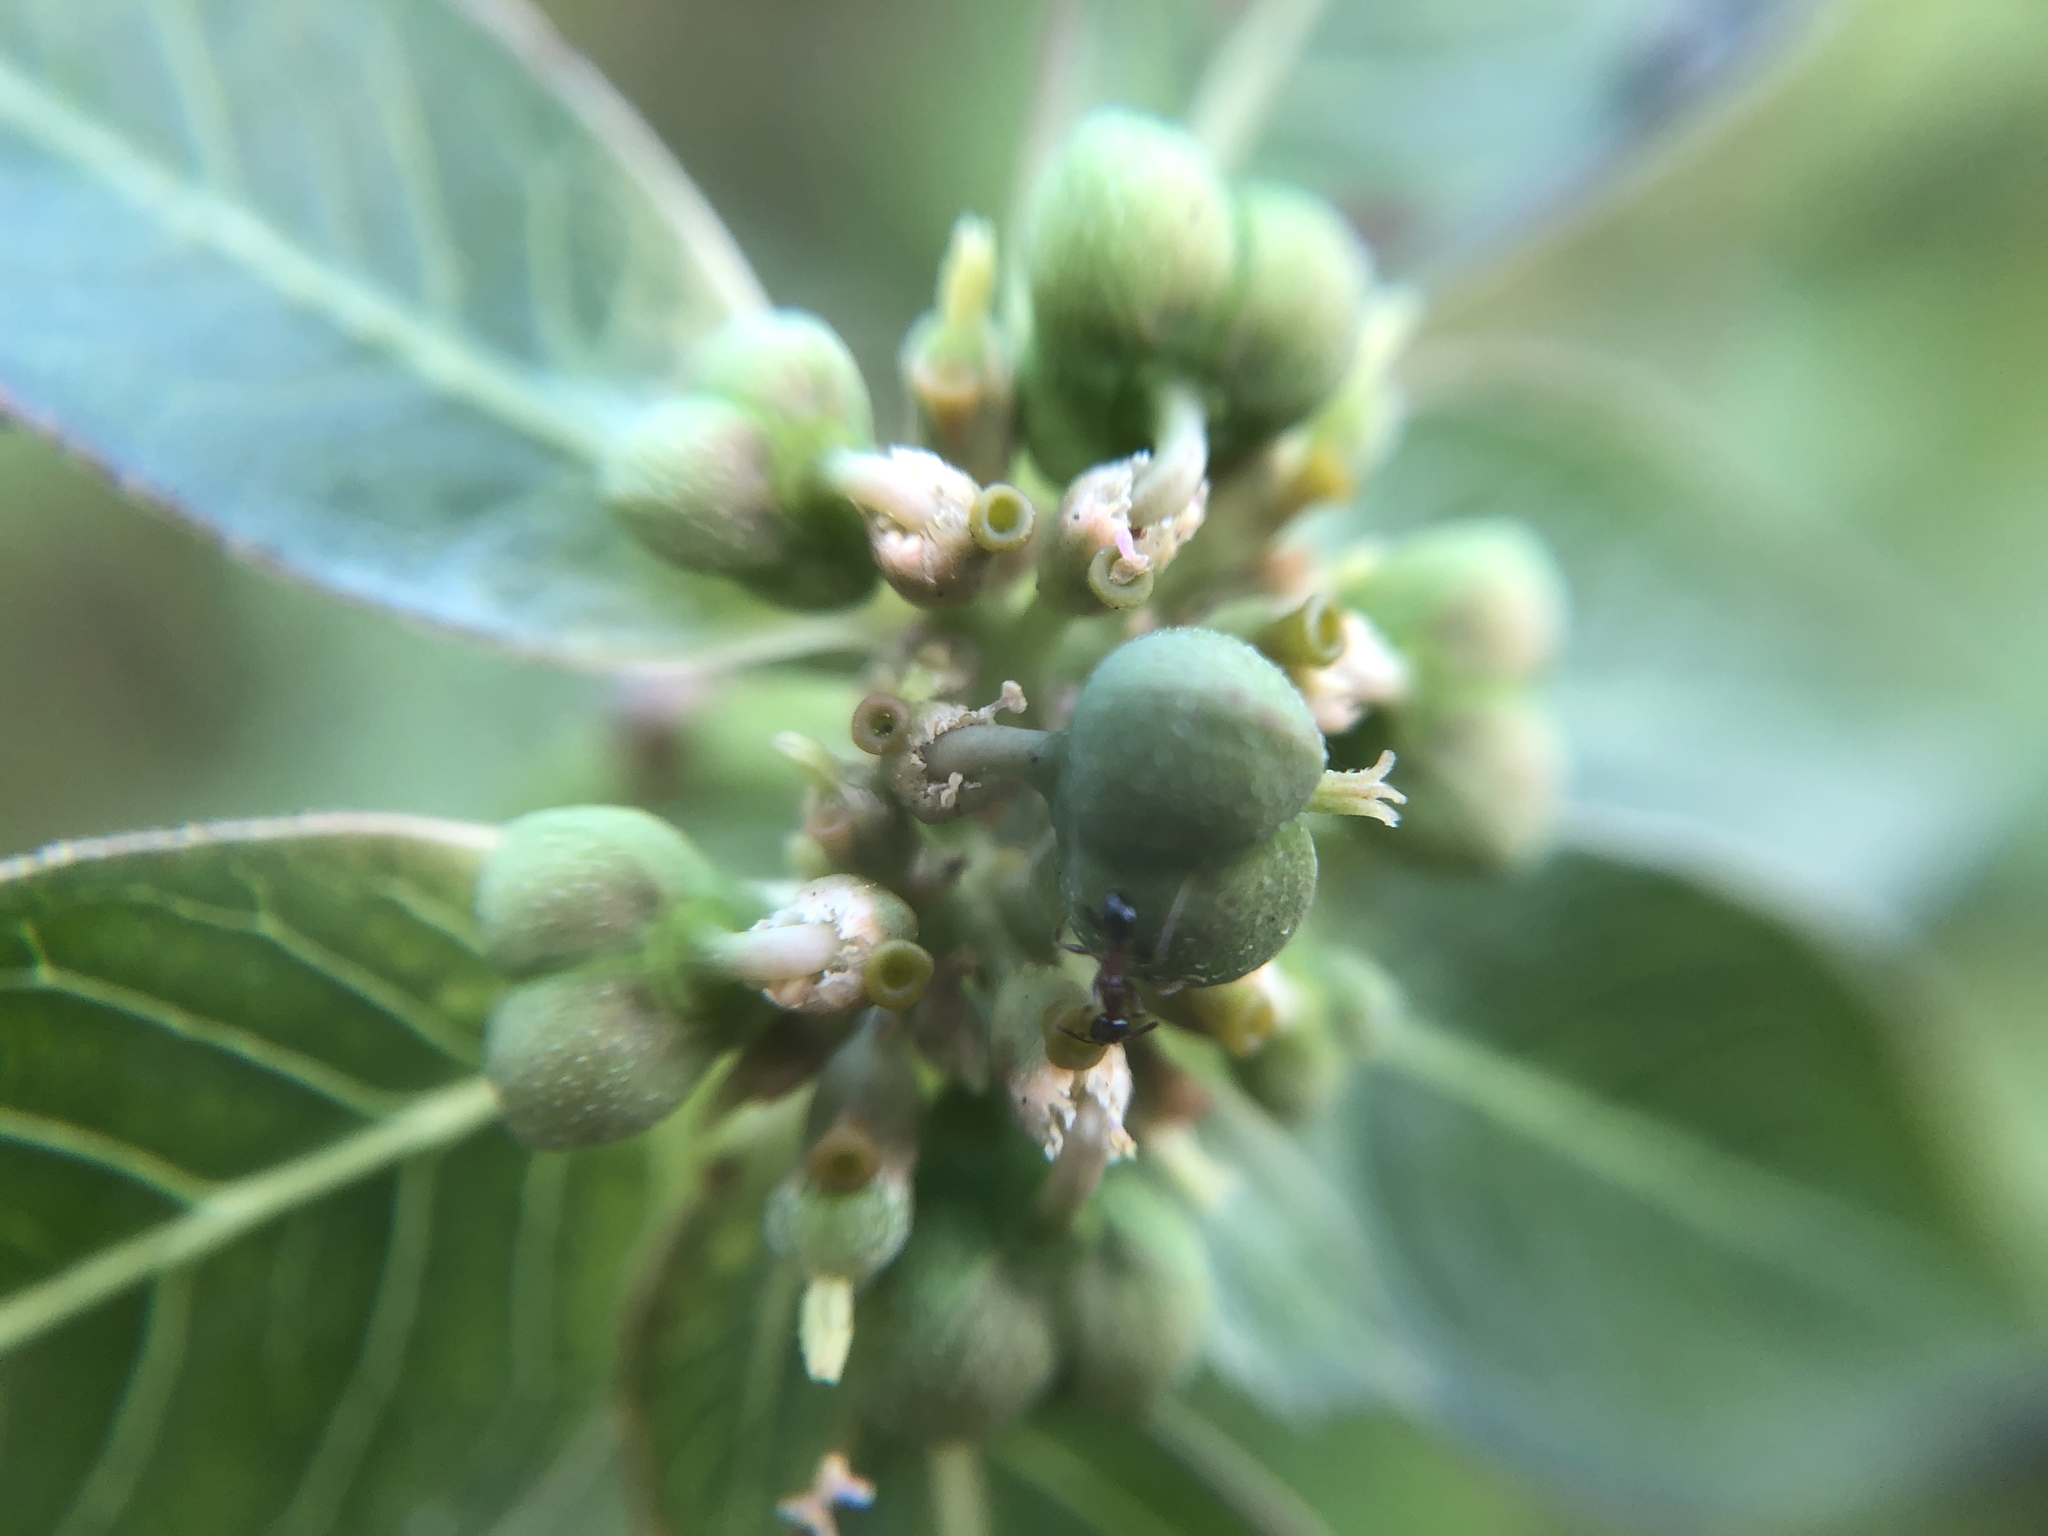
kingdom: Plantae
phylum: Tracheophyta
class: Magnoliopsida
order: Malpighiales
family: Euphorbiaceae
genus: Euphorbia
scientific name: Euphorbia heterophylla
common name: Mexican fireplant
